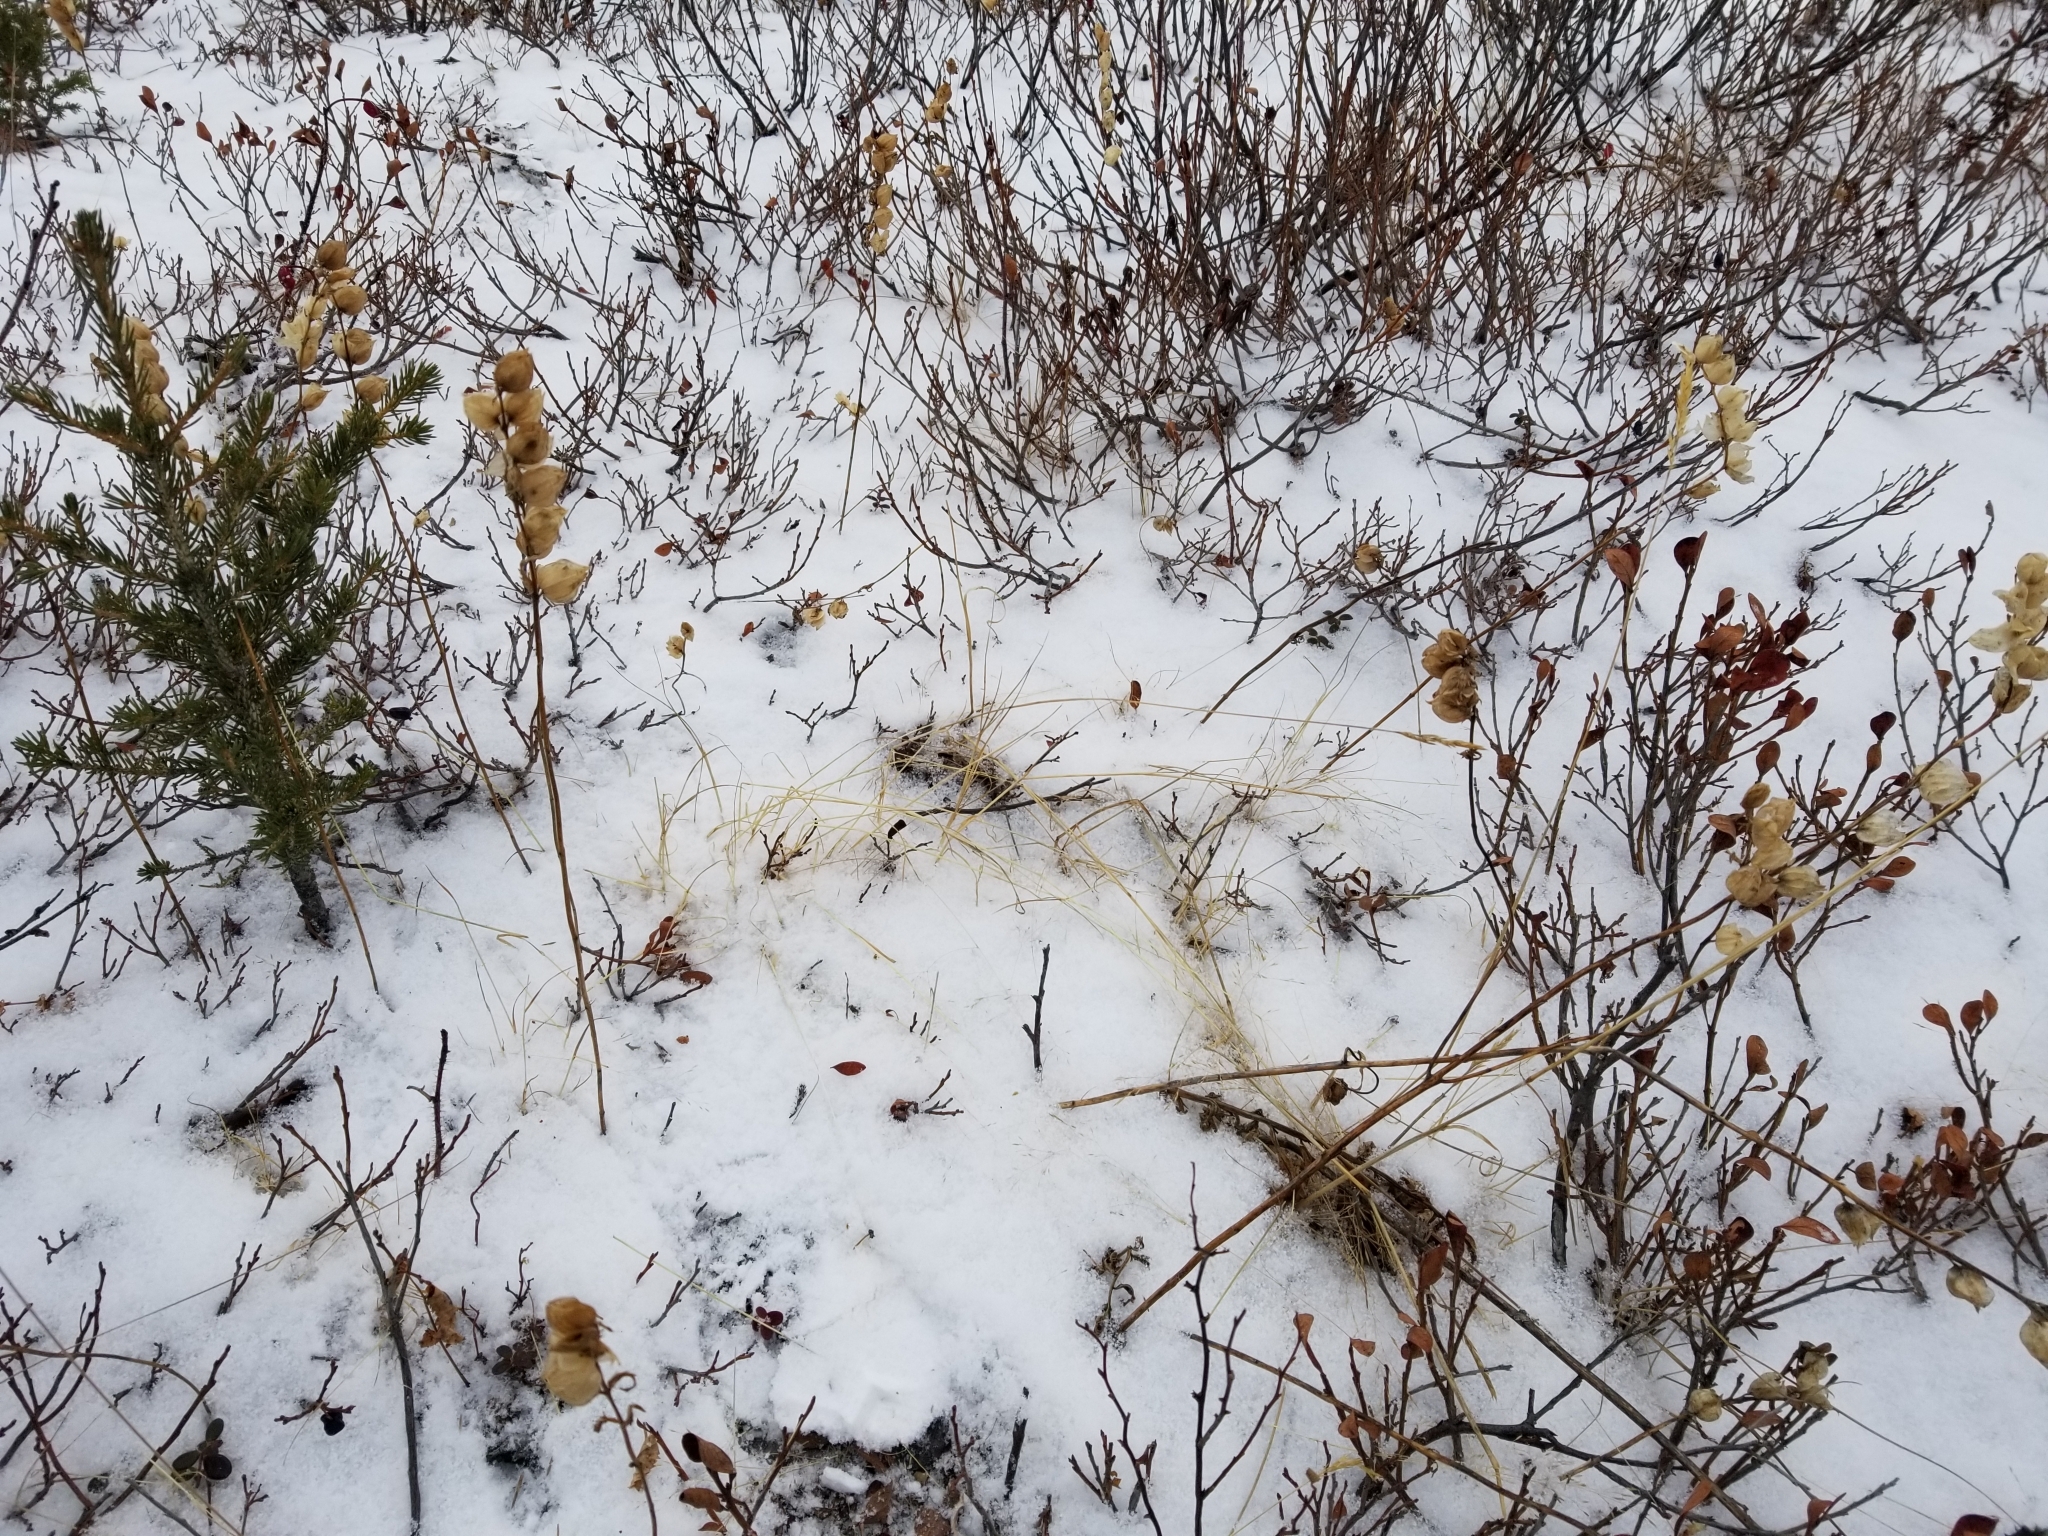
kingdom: Plantae
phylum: Tracheophyta
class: Magnoliopsida
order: Lamiales
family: Orobanchaceae
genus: Rhinanthus
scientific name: Rhinanthus minor
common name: Yellow-rattle
